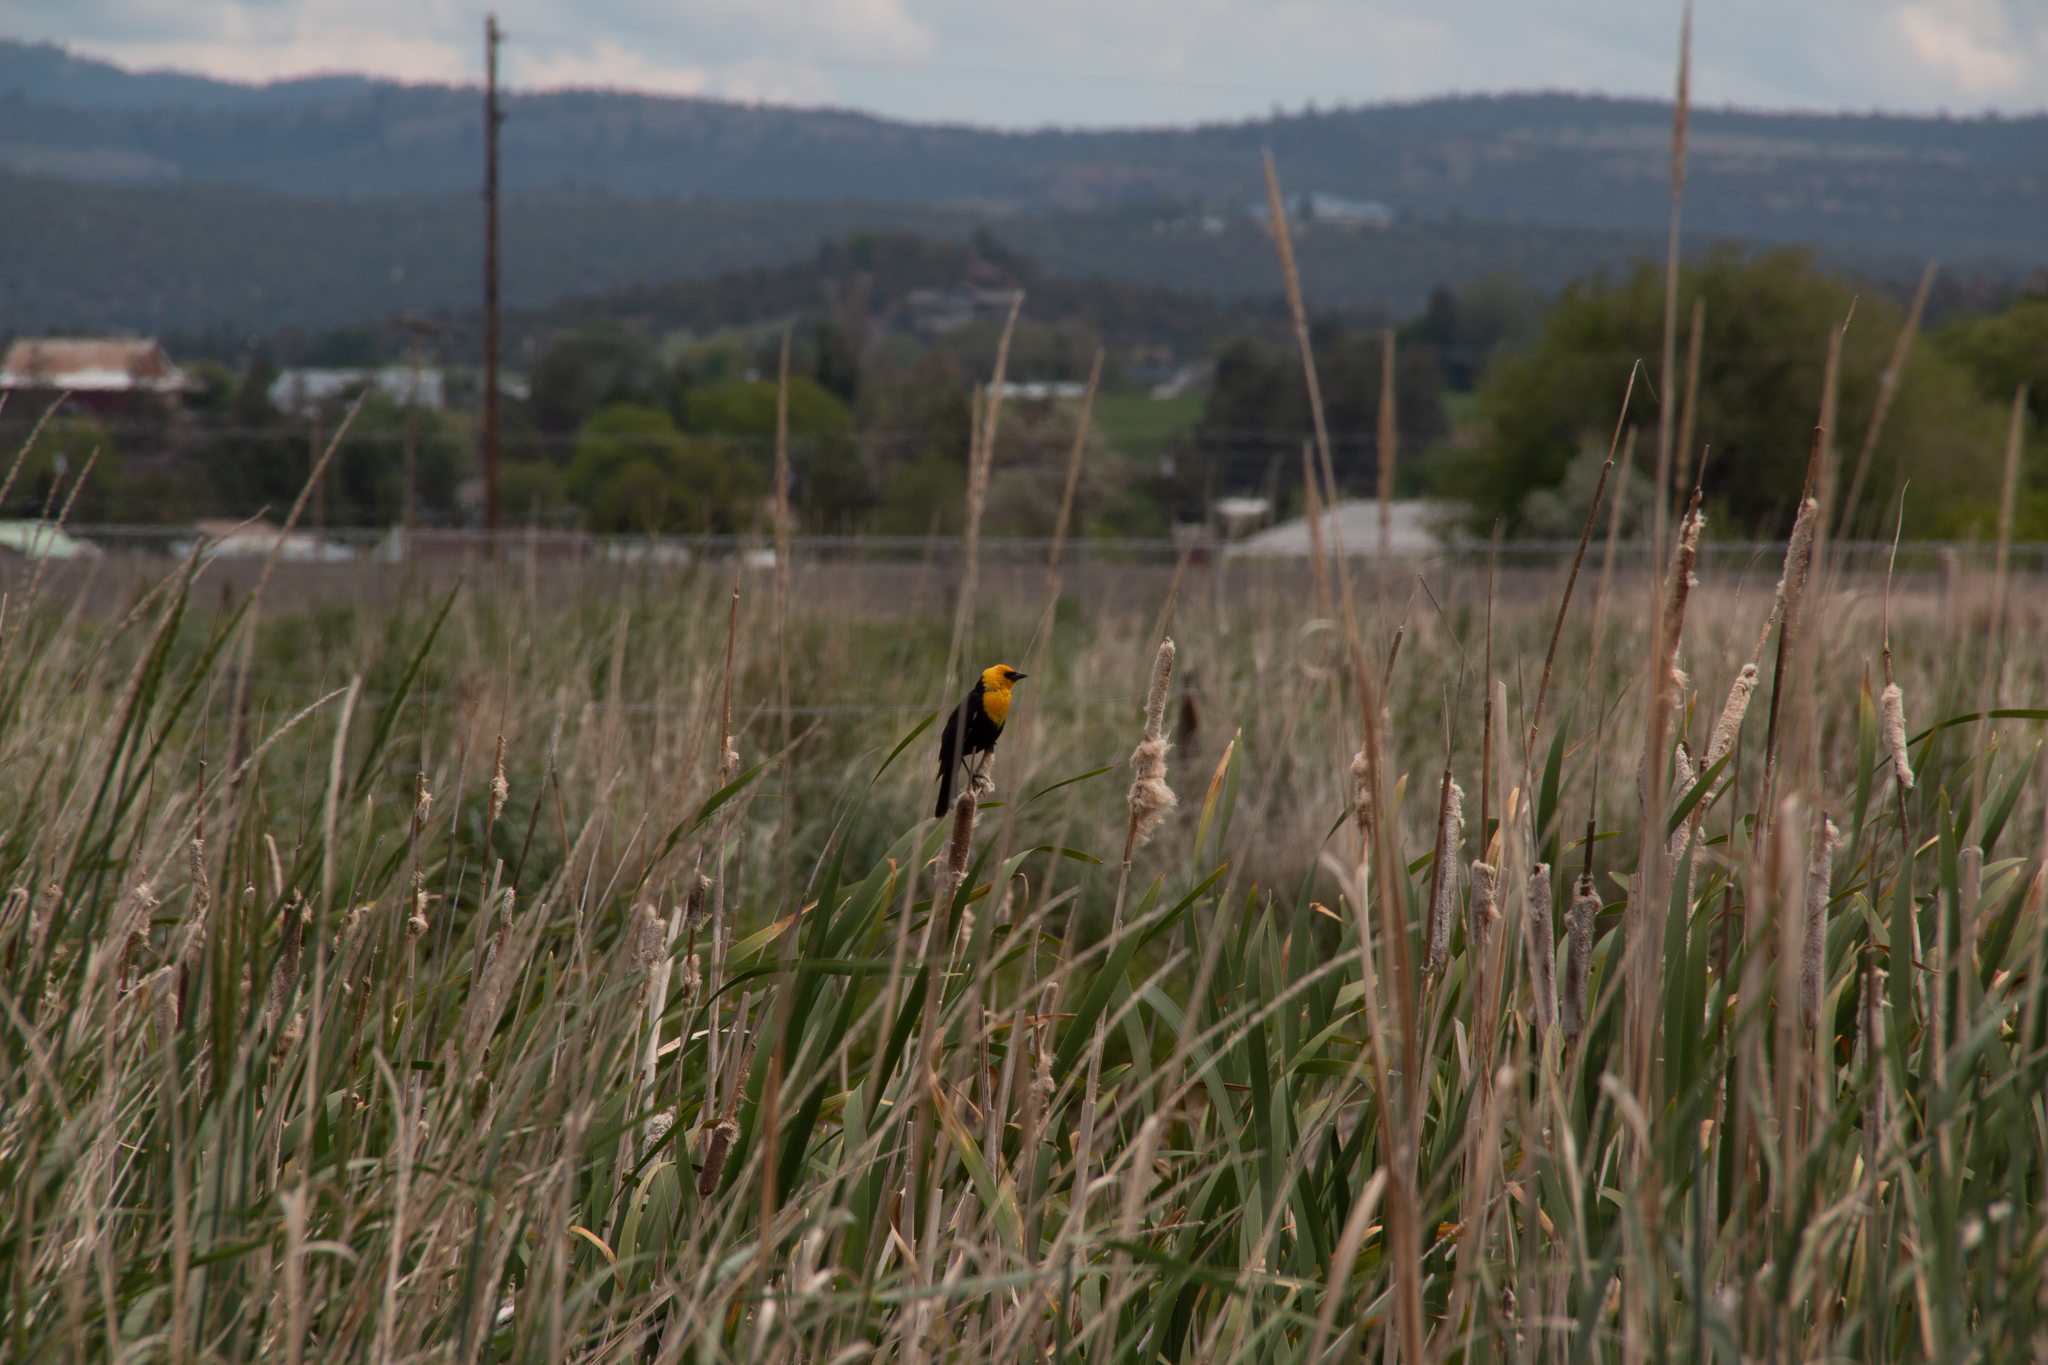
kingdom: Animalia
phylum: Chordata
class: Aves
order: Passeriformes
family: Icteridae
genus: Xanthocephalus
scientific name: Xanthocephalus xanthocephalus
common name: Yellow-headed blackbird
